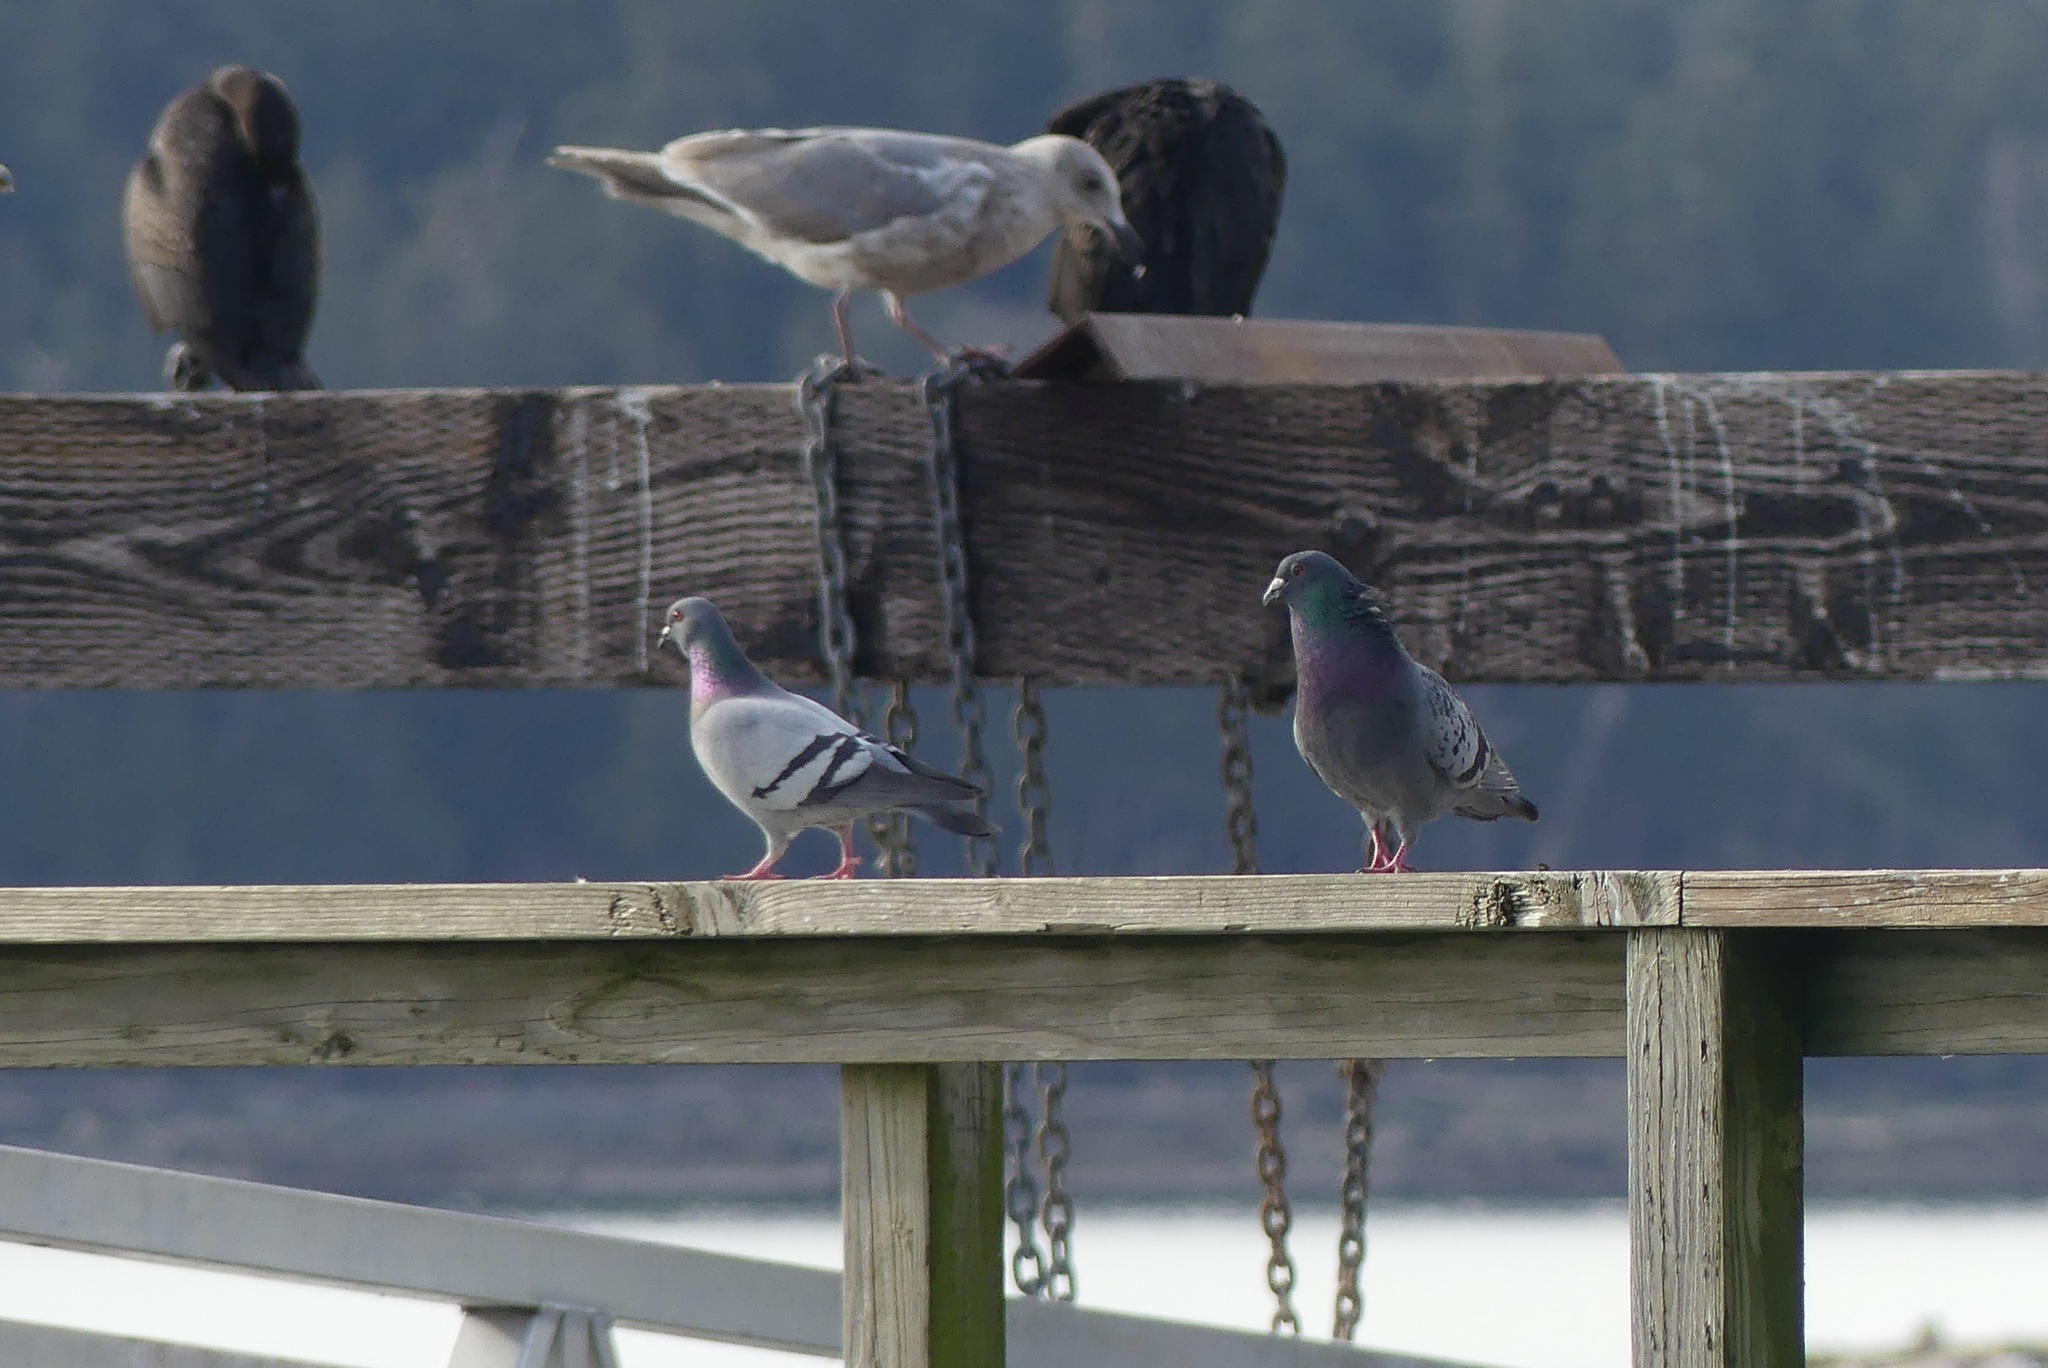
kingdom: Animalia
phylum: Chordata
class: Aves
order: Columbiformes
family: Columbidae
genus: Columba
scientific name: Columba livia
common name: Rock pigeon
